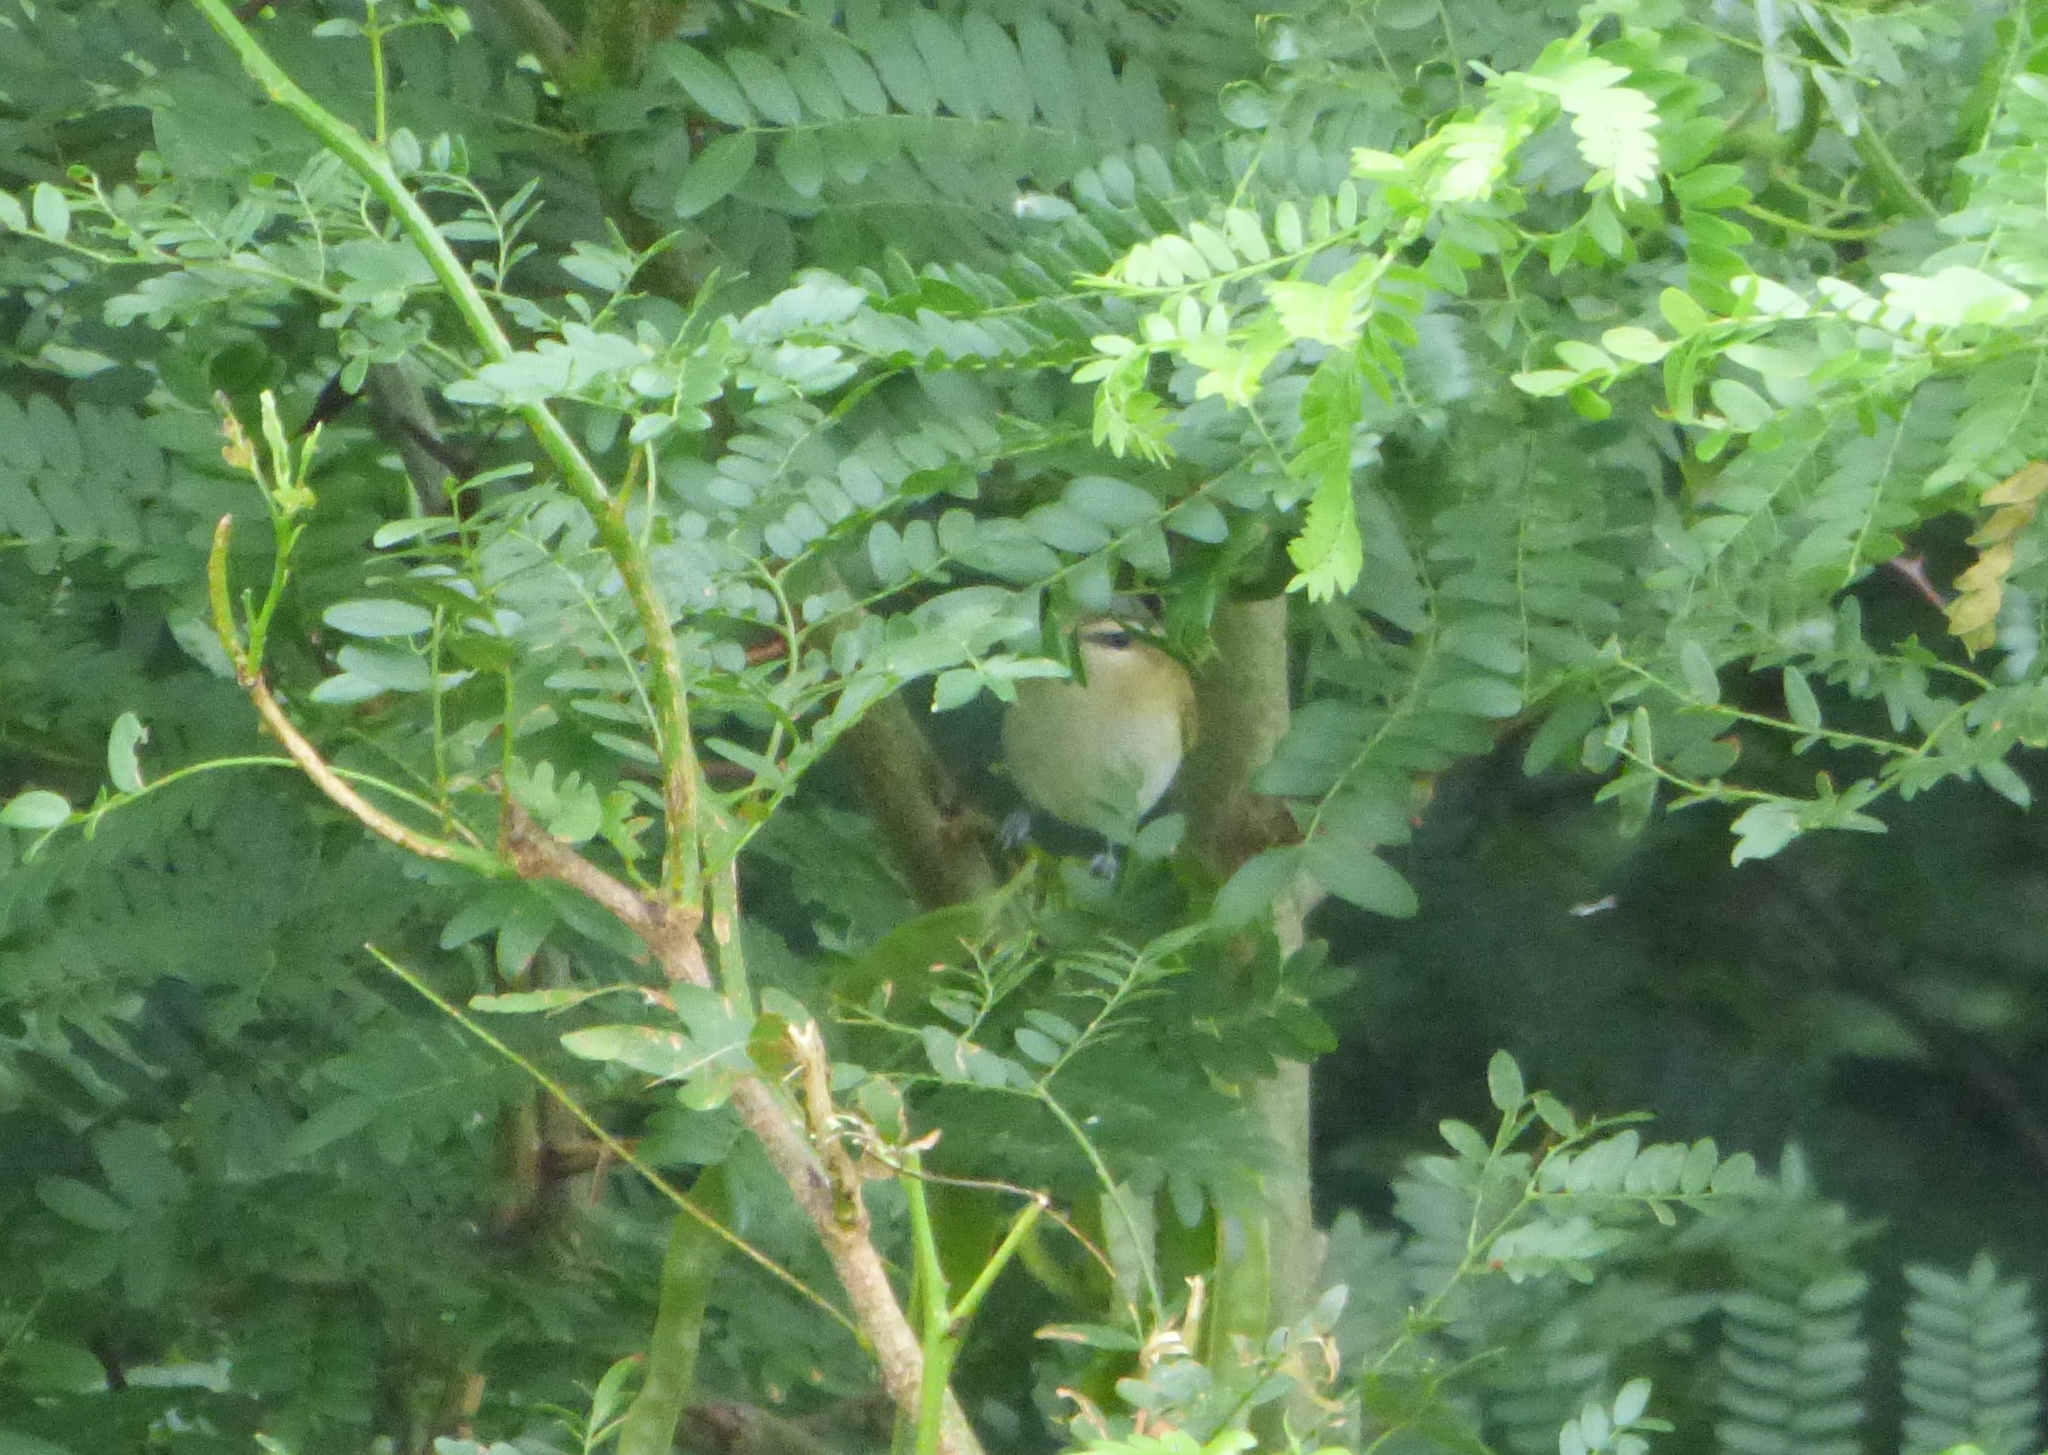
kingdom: Animalia
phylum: Chordata
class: Aves
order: Passeriformes
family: Vireonidae
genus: Vireo
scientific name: Vireo olivaceus
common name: Red-eyed vireo
